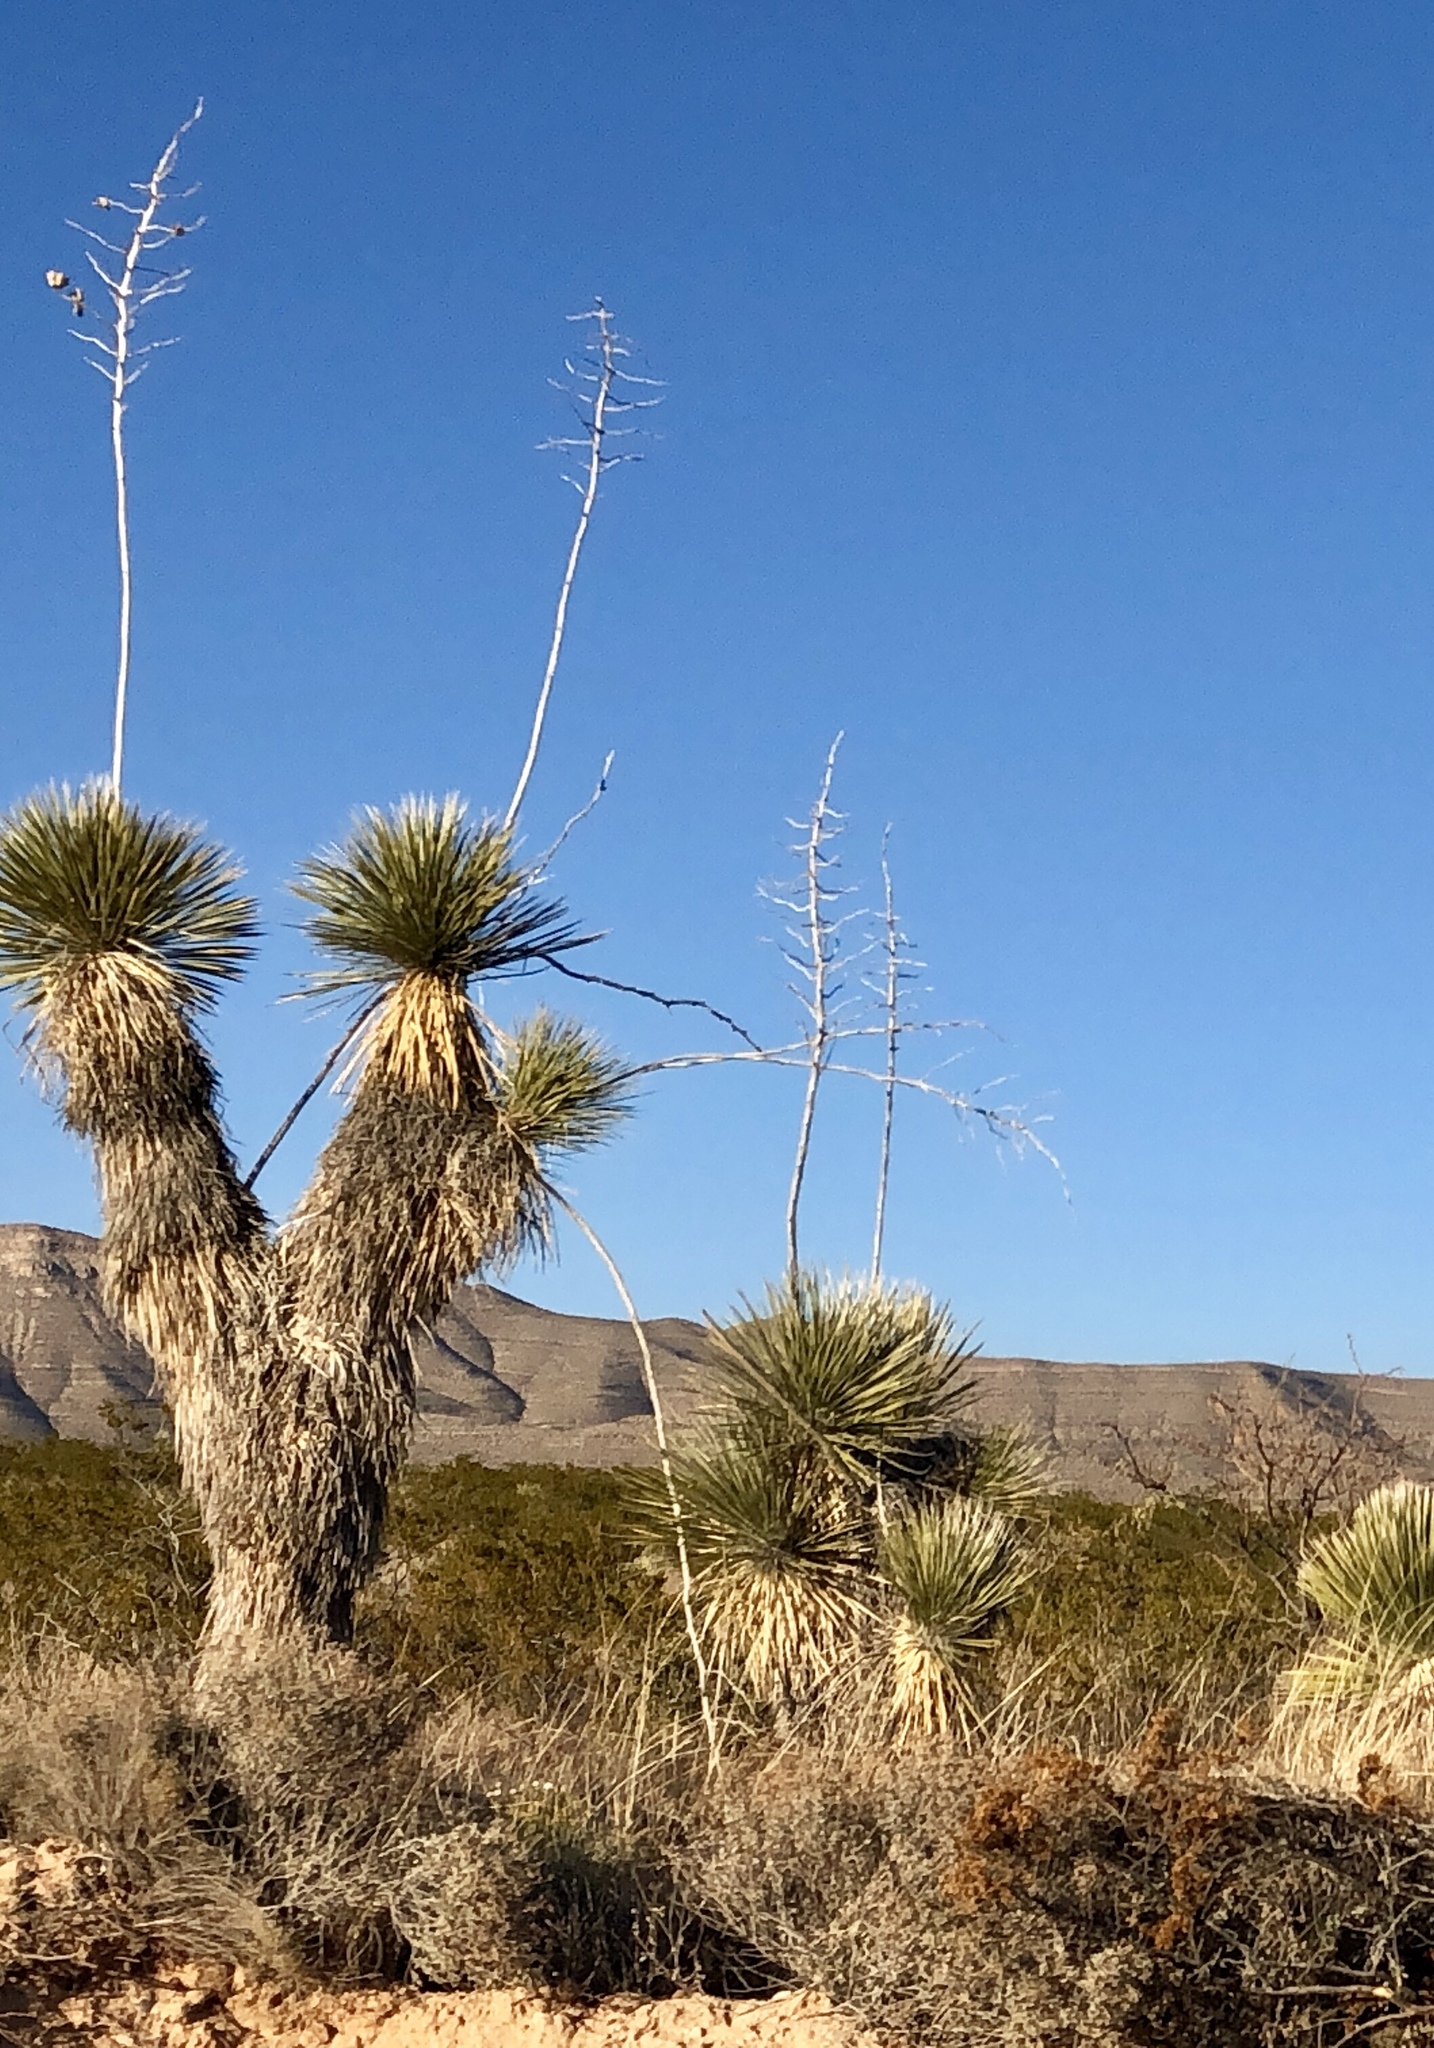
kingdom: Plantae
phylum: Tracheophyta
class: Liliopsida
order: Asparagales
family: Asparagaceae
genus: Yucca
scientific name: Yucca elata
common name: Palmella
